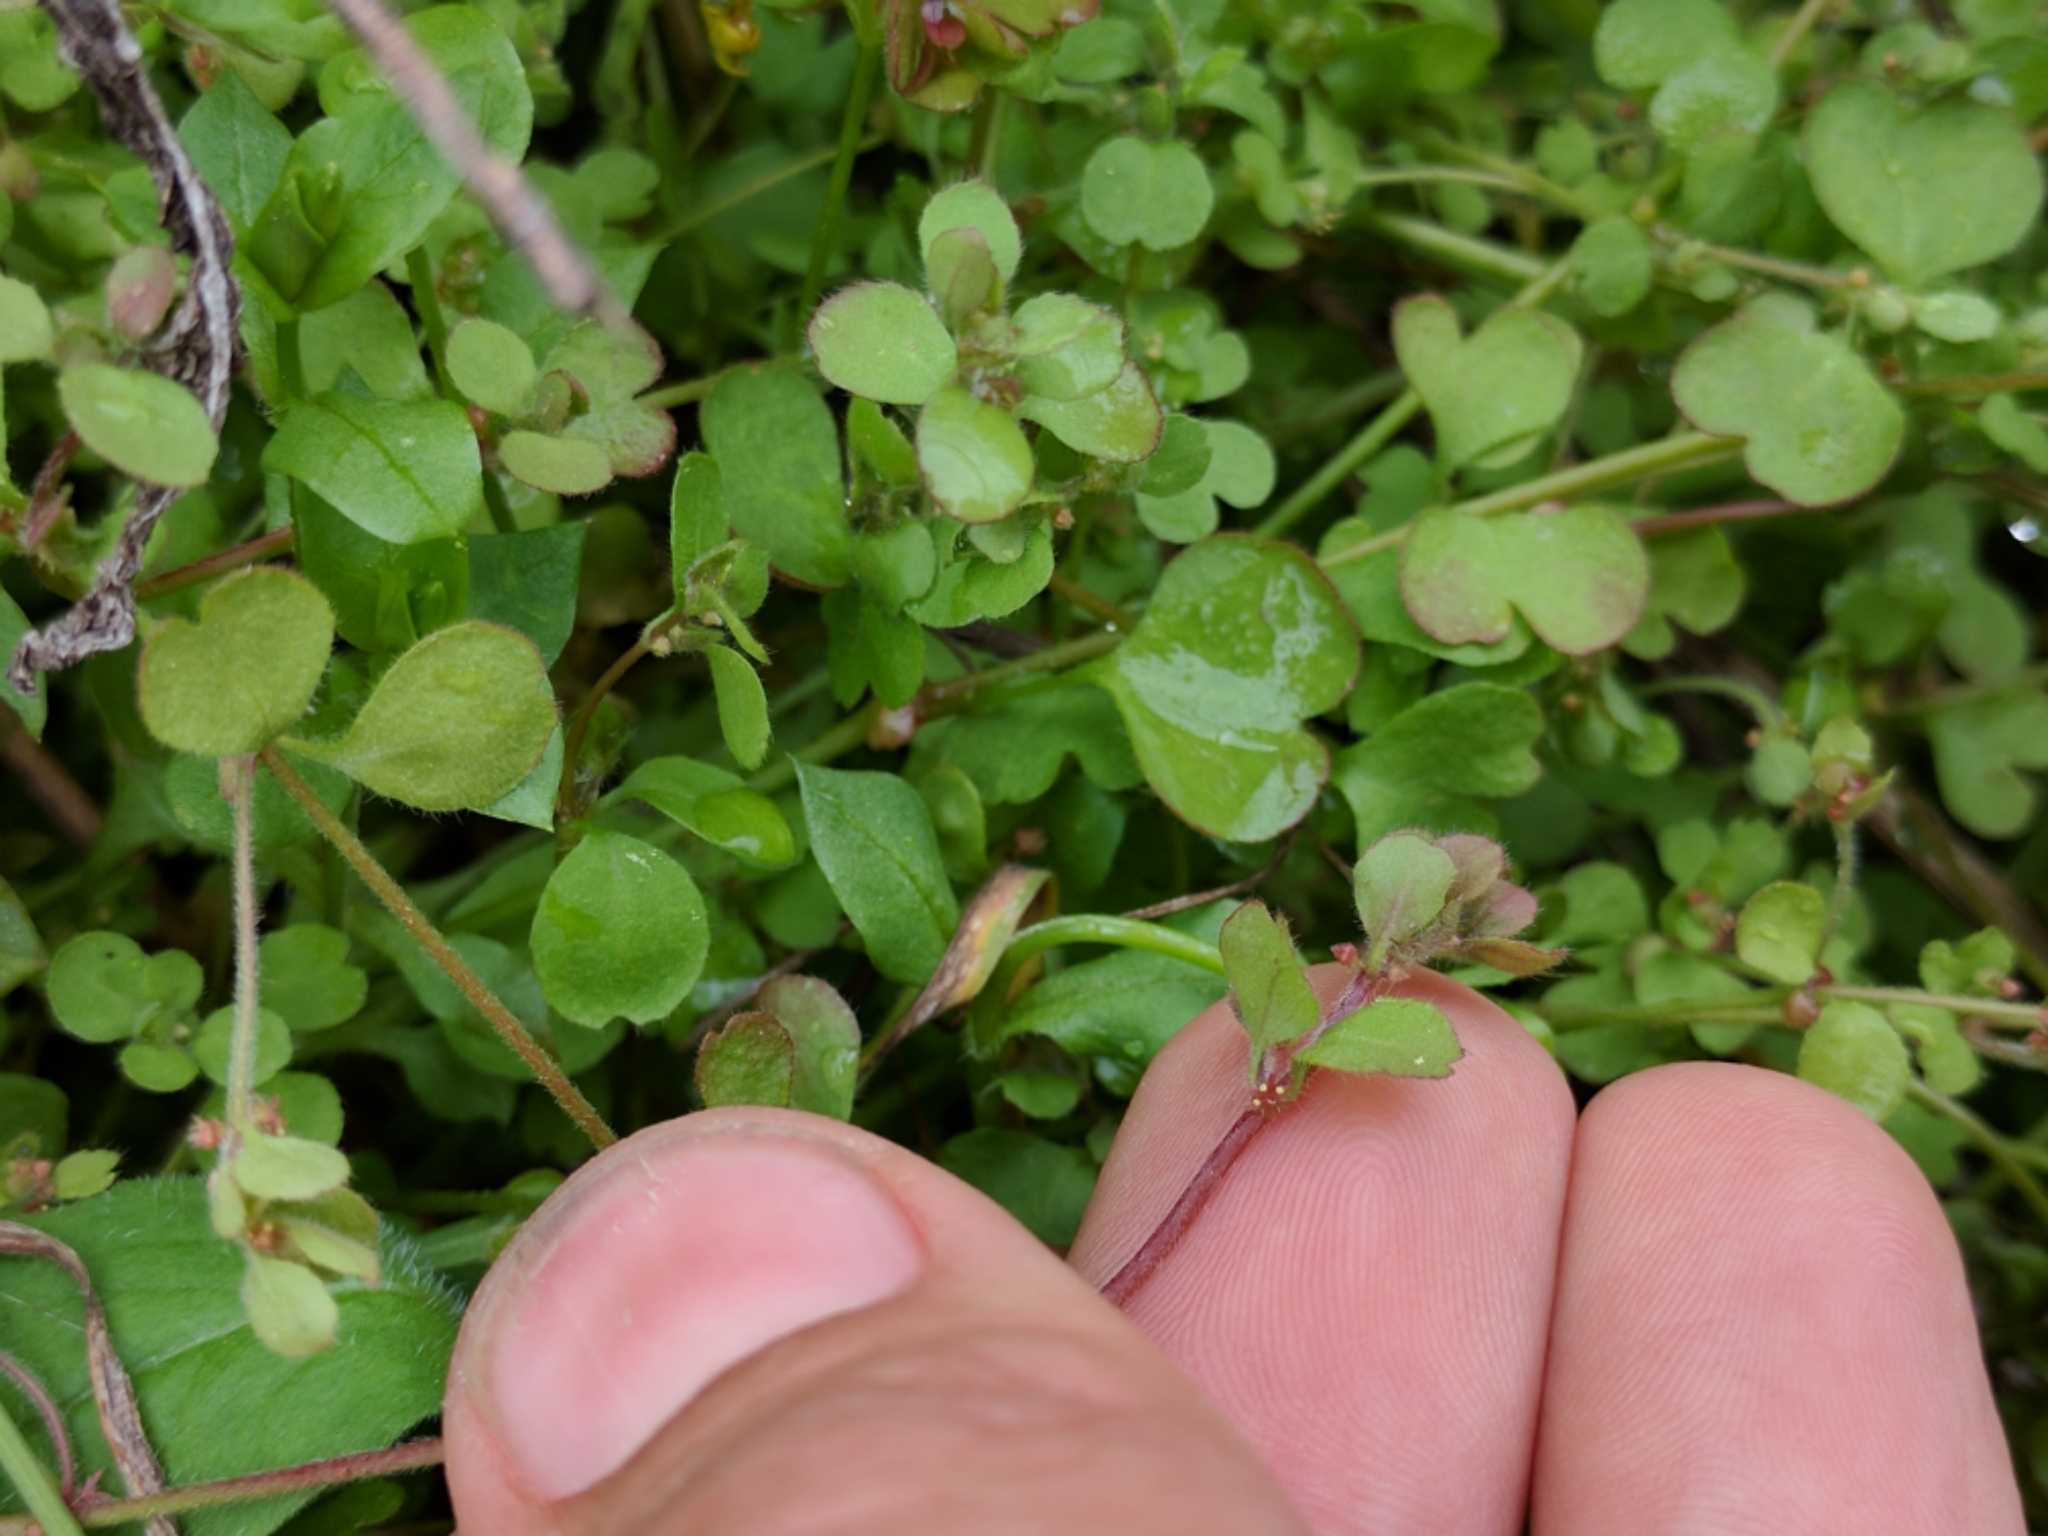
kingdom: Plantae
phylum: Tracheophyta
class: Magnoliopsida
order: Caryophyllales
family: Polygonaceae
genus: Pterostegia
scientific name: Pterostegia drymarioides
